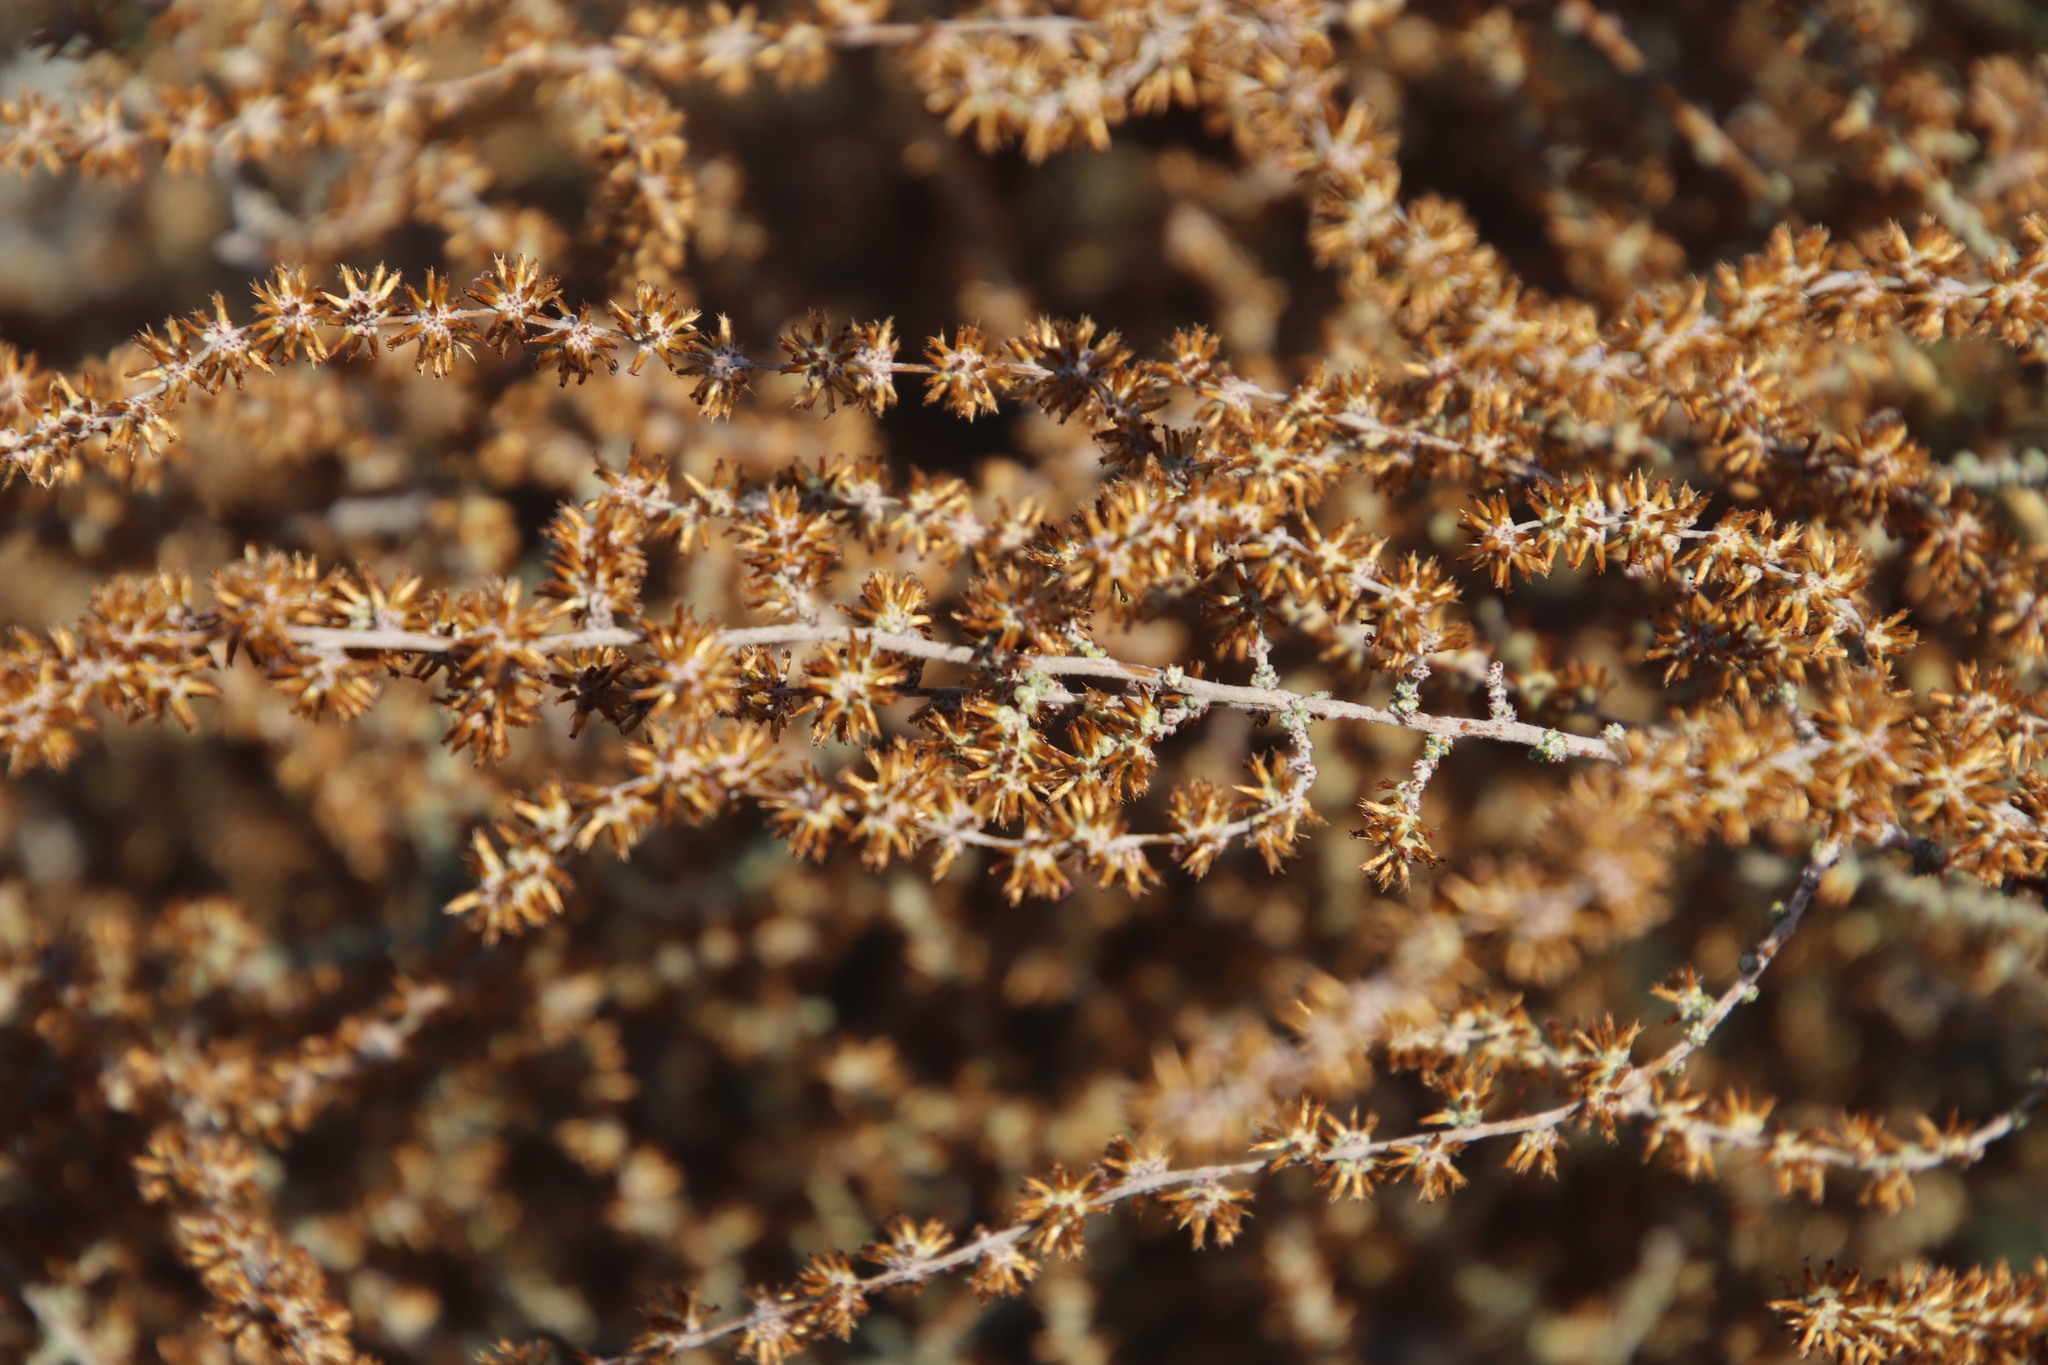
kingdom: Plantae
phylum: Tracheophyta
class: Magnoliopsida
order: Asterales
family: Asteraceae
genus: Seriphium
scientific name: Seriphium plumosum
